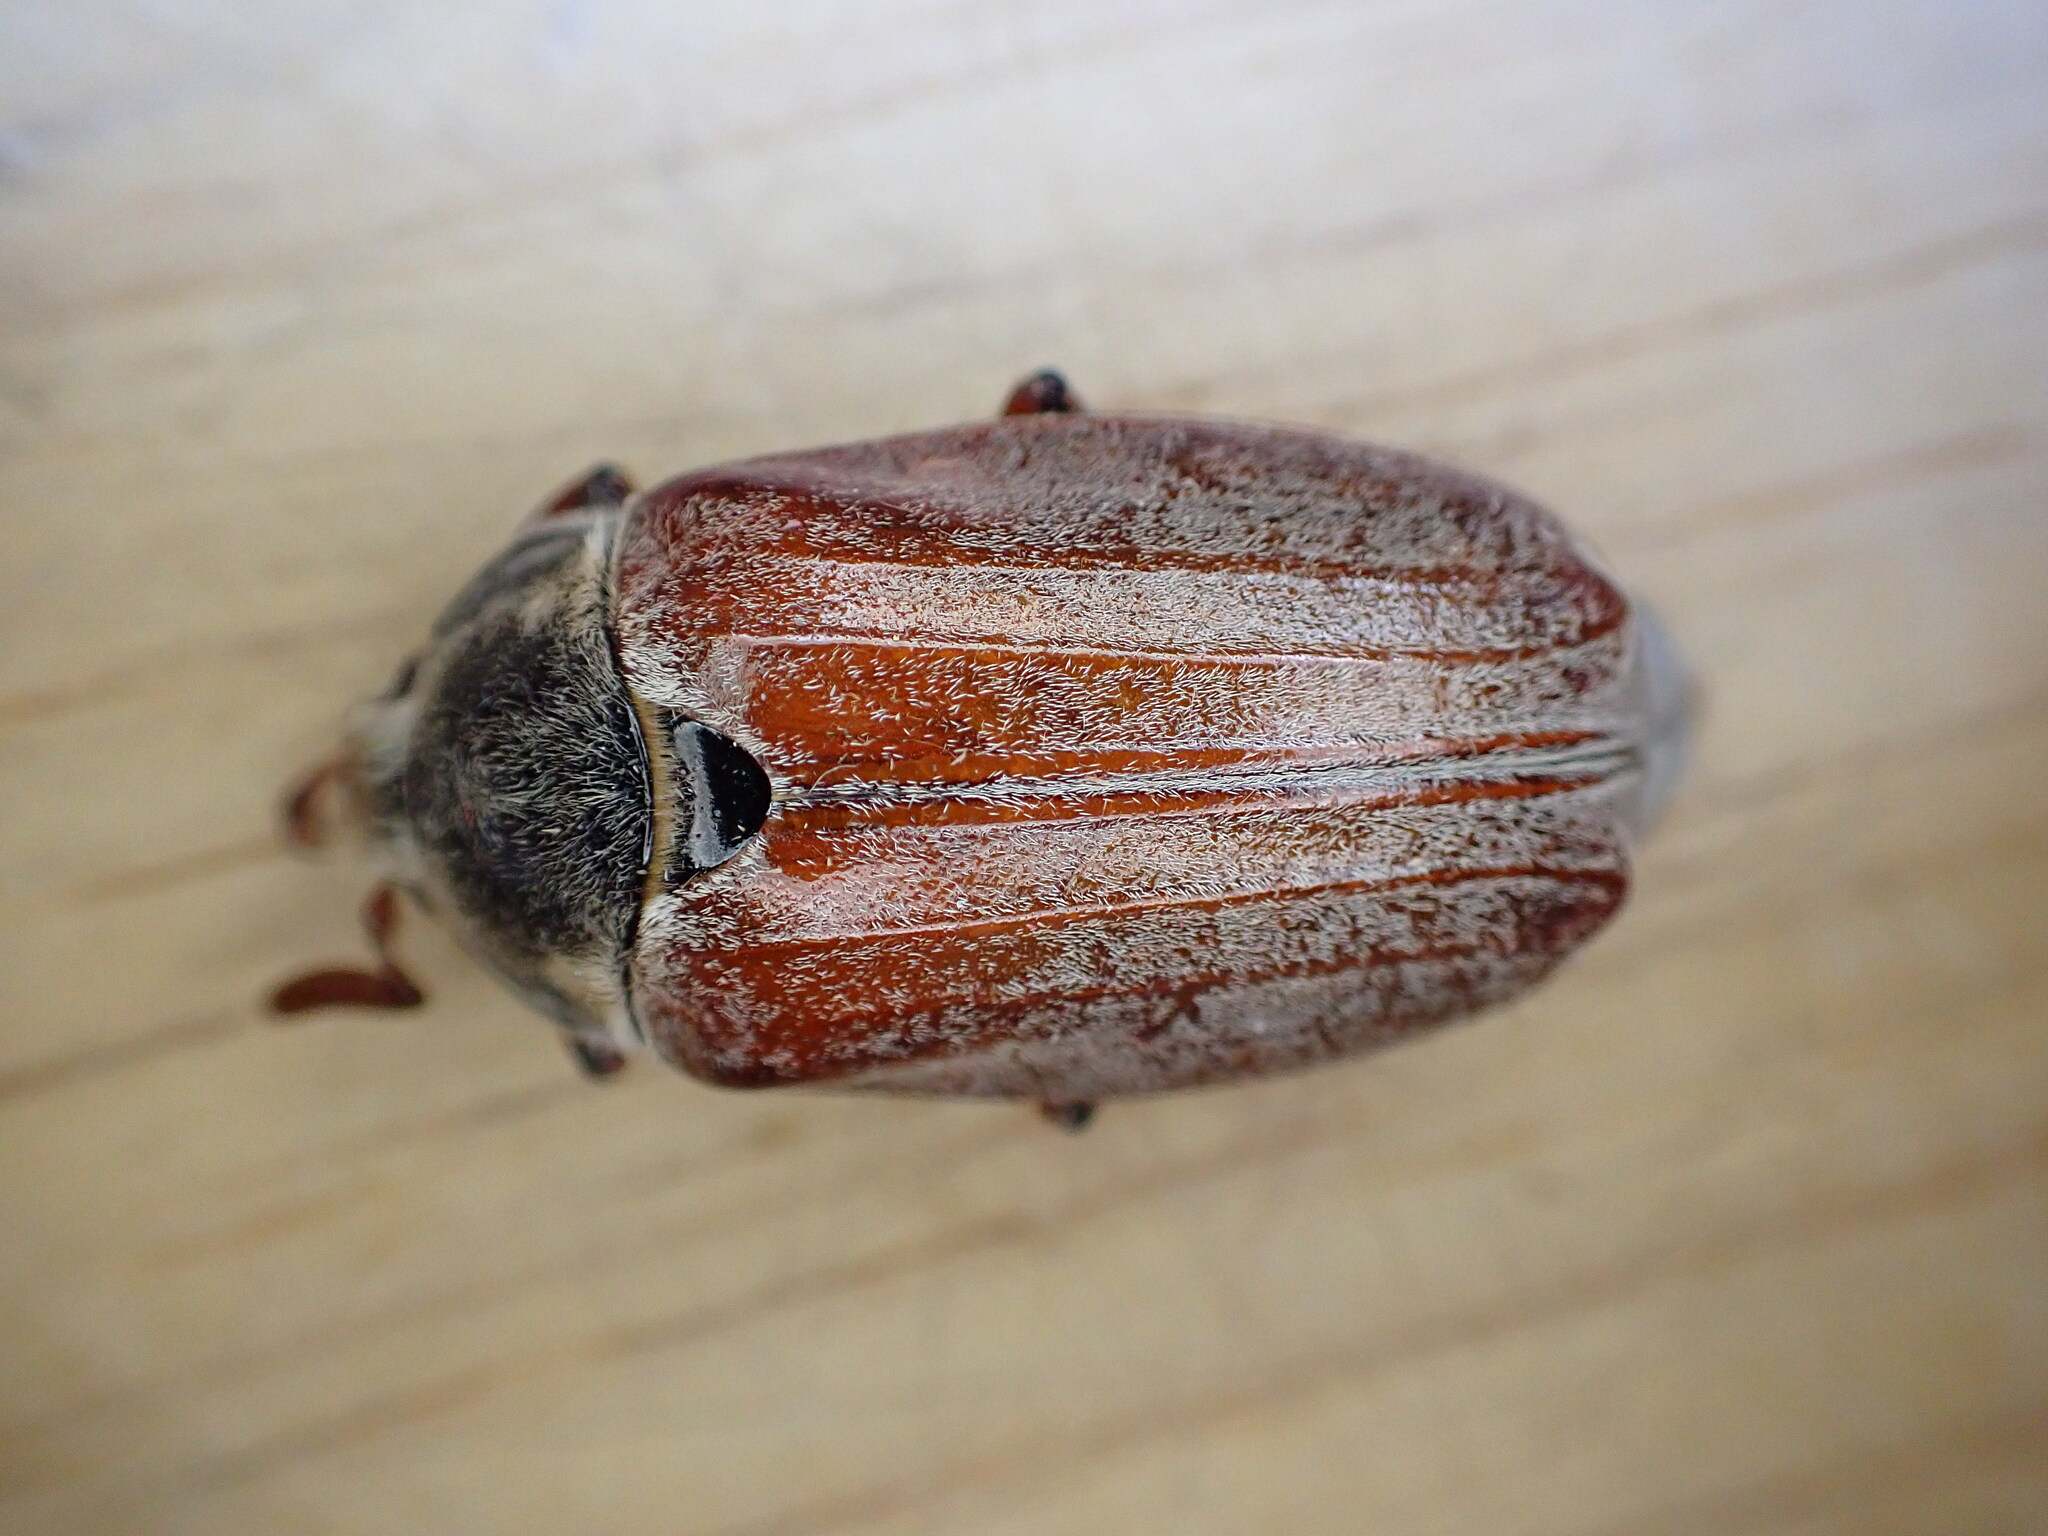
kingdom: Animalia
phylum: Arthropoda
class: Insecta
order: Coleoptera
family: Scarabaeidae
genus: Melolontha
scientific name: Melolontha melolontha
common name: Cockchafer maybeetle
